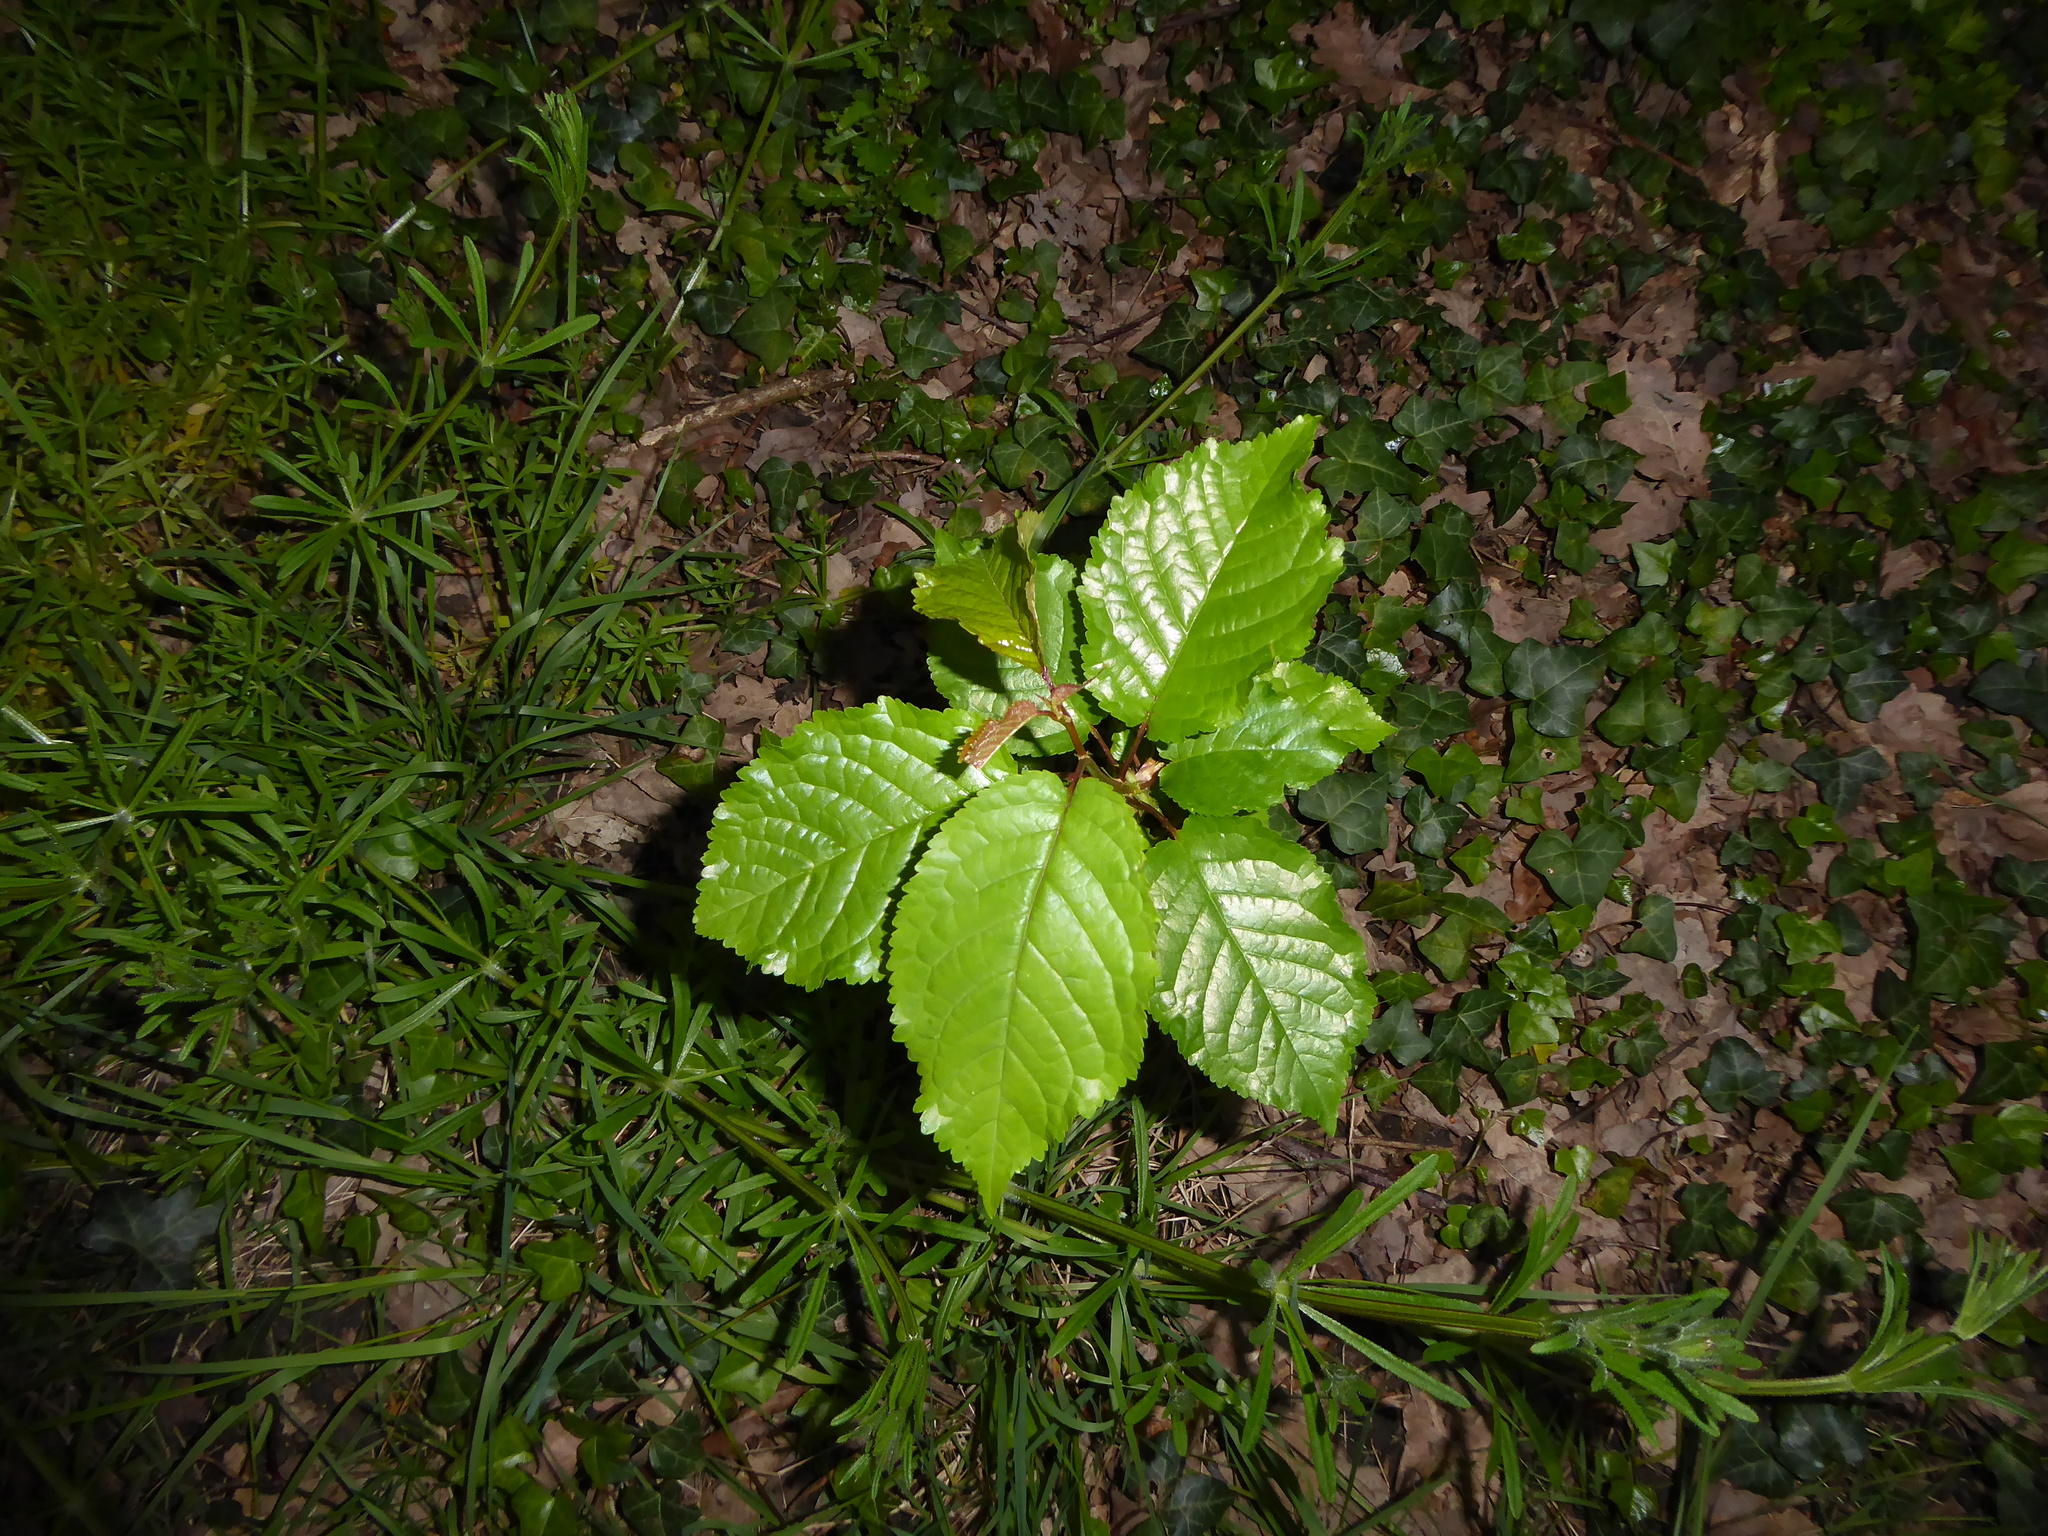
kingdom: Plantae
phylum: Tracheophyta
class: Magnoliopsida
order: Rosales
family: Rosaceae
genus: Prunus
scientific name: Prunus avium
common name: Sweet cherry
